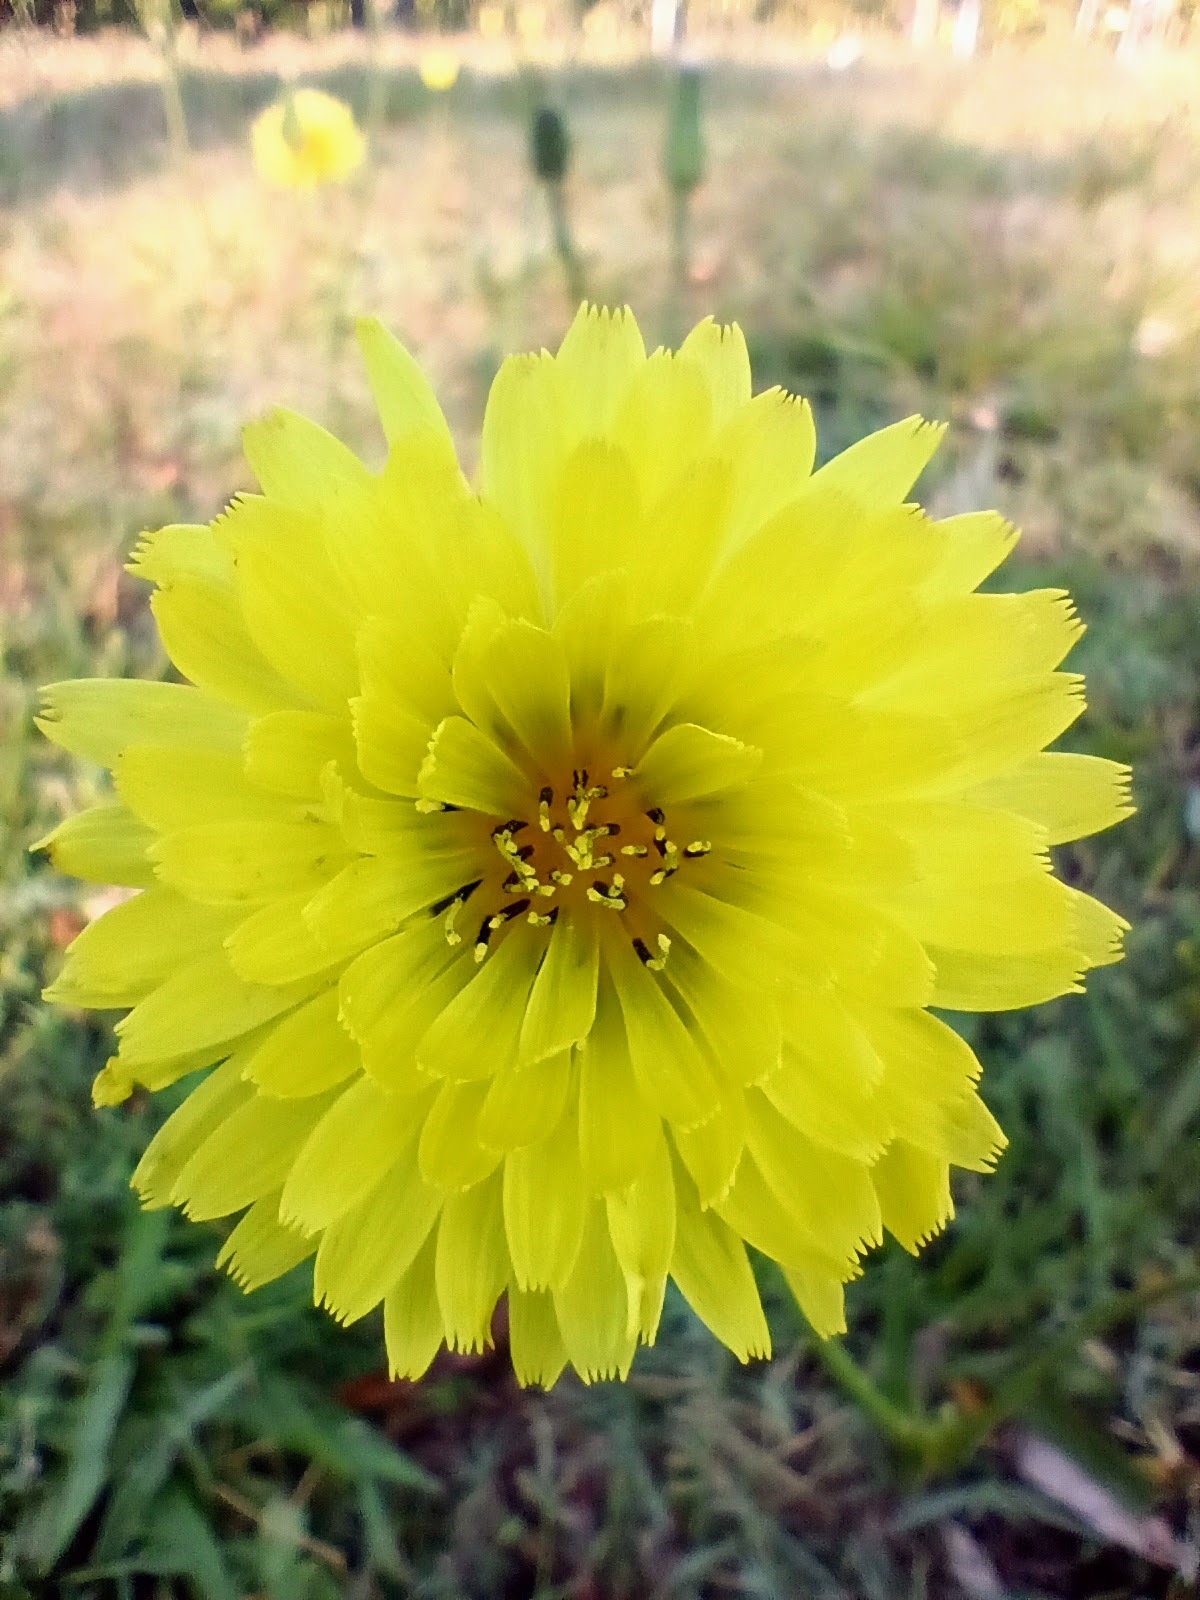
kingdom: Plantae
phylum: Tracheophyta
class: Magnoliopsida
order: Asterales
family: Asteraceae
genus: Pyrrhopappus
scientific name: Pyrrhopappus carolinianus
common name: Carolina desert-chicory
